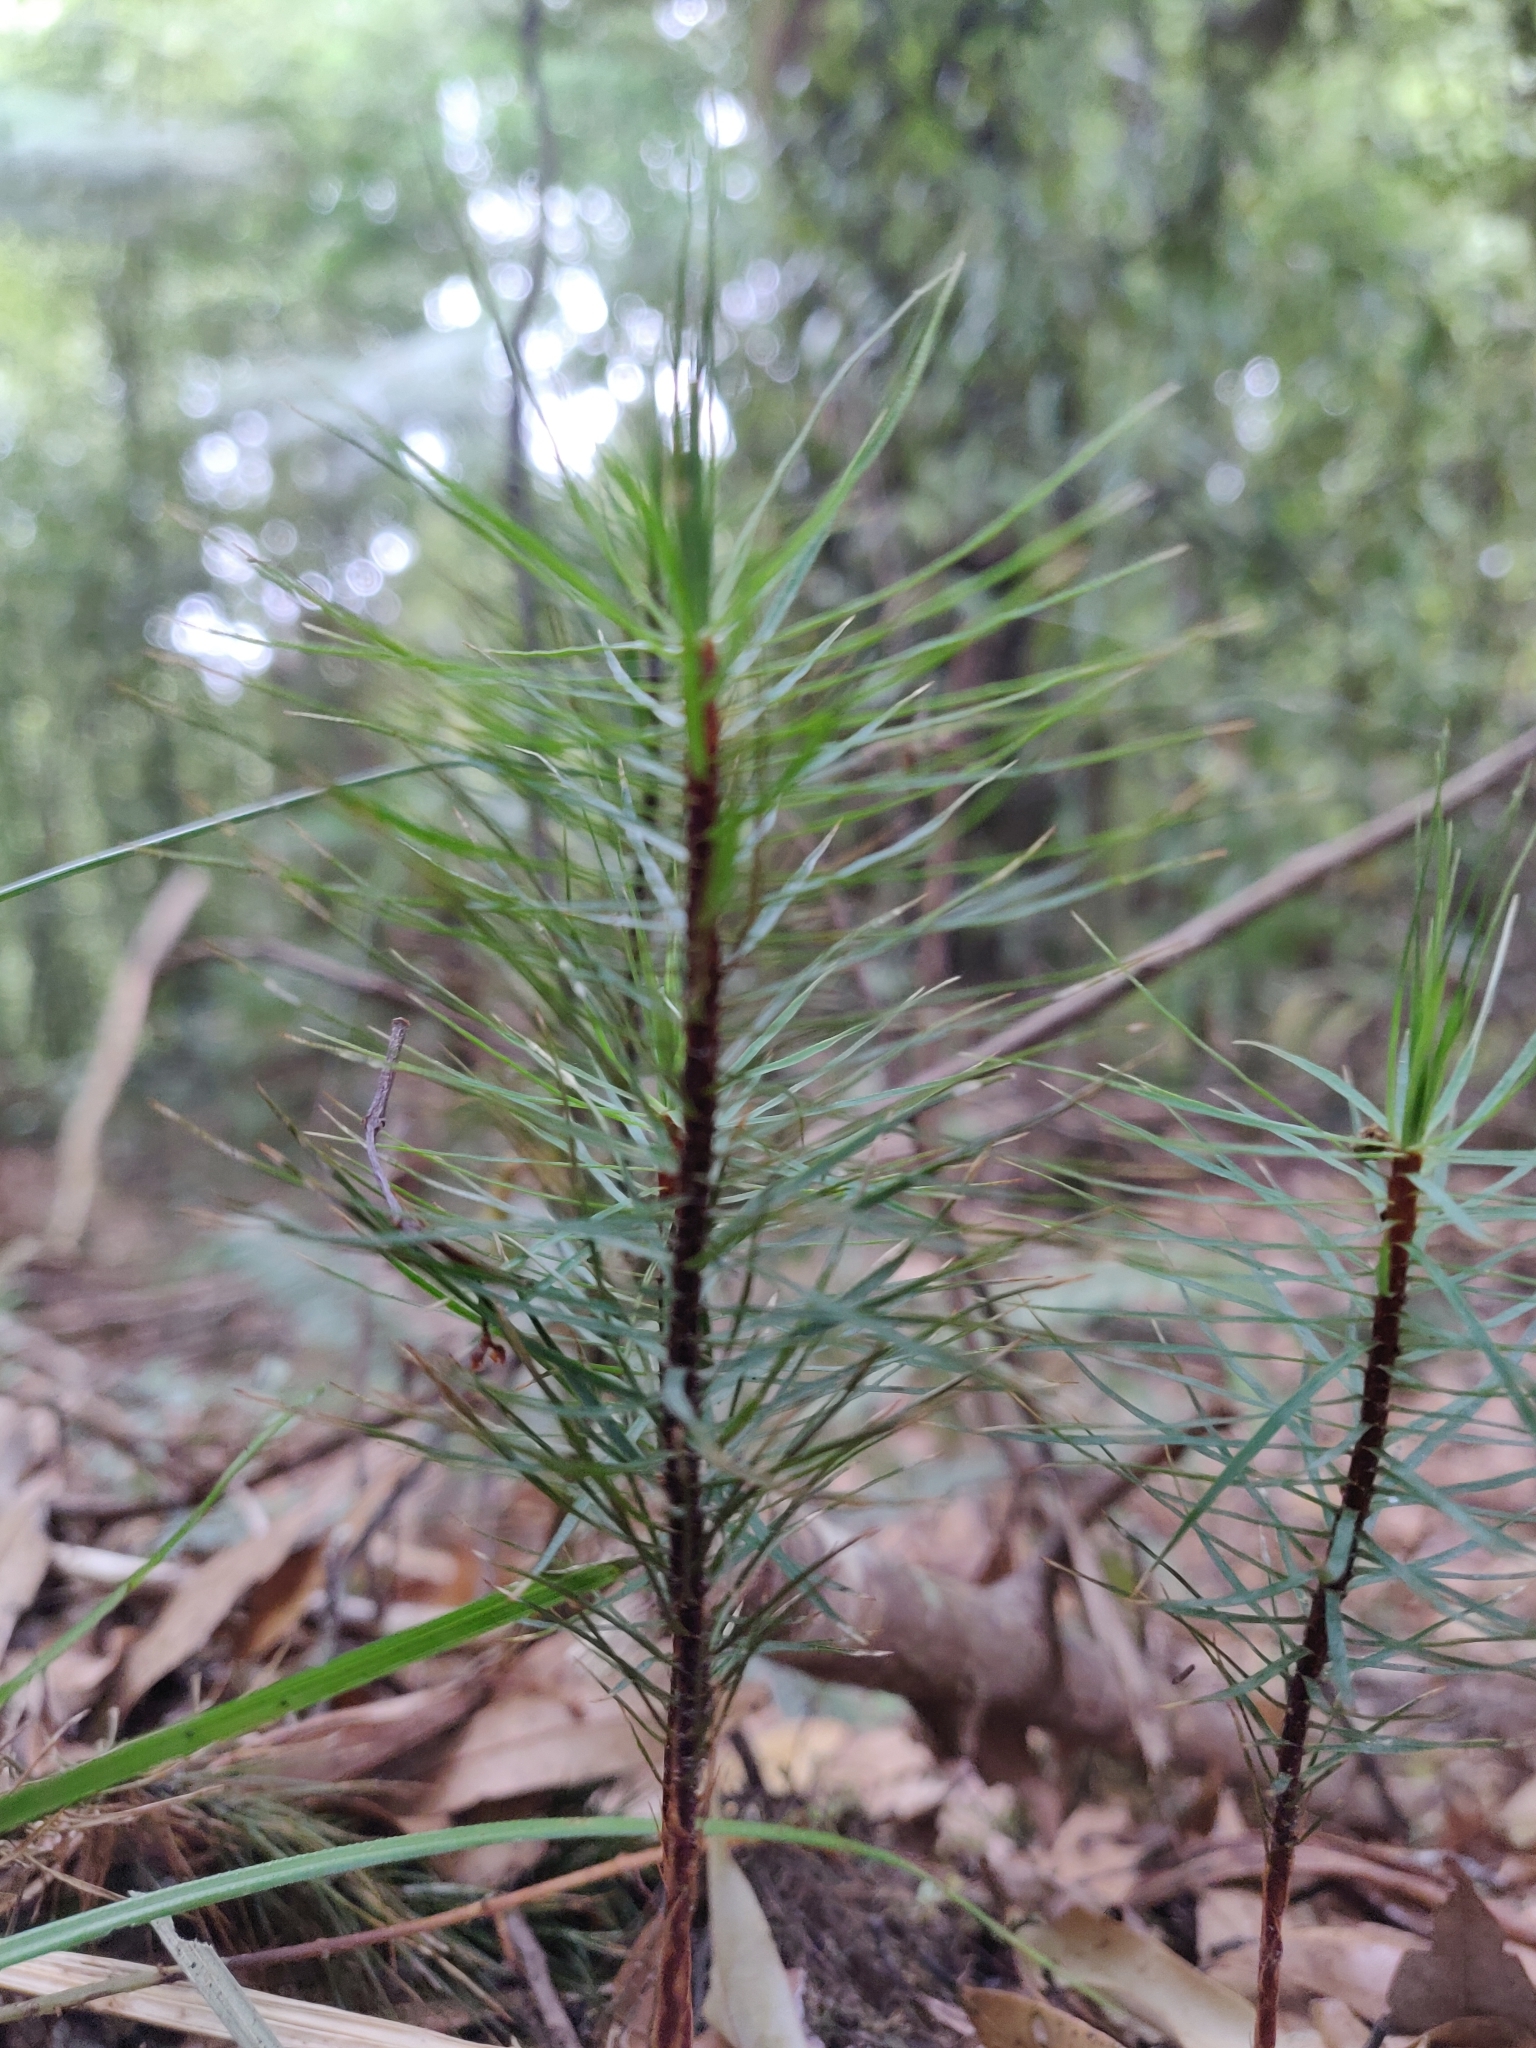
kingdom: Plantae
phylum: Bryophyta
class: Polytrichopsida
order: Polytrichales
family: Polytrichaceae
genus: Dawsonia
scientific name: Dawsonia superba
